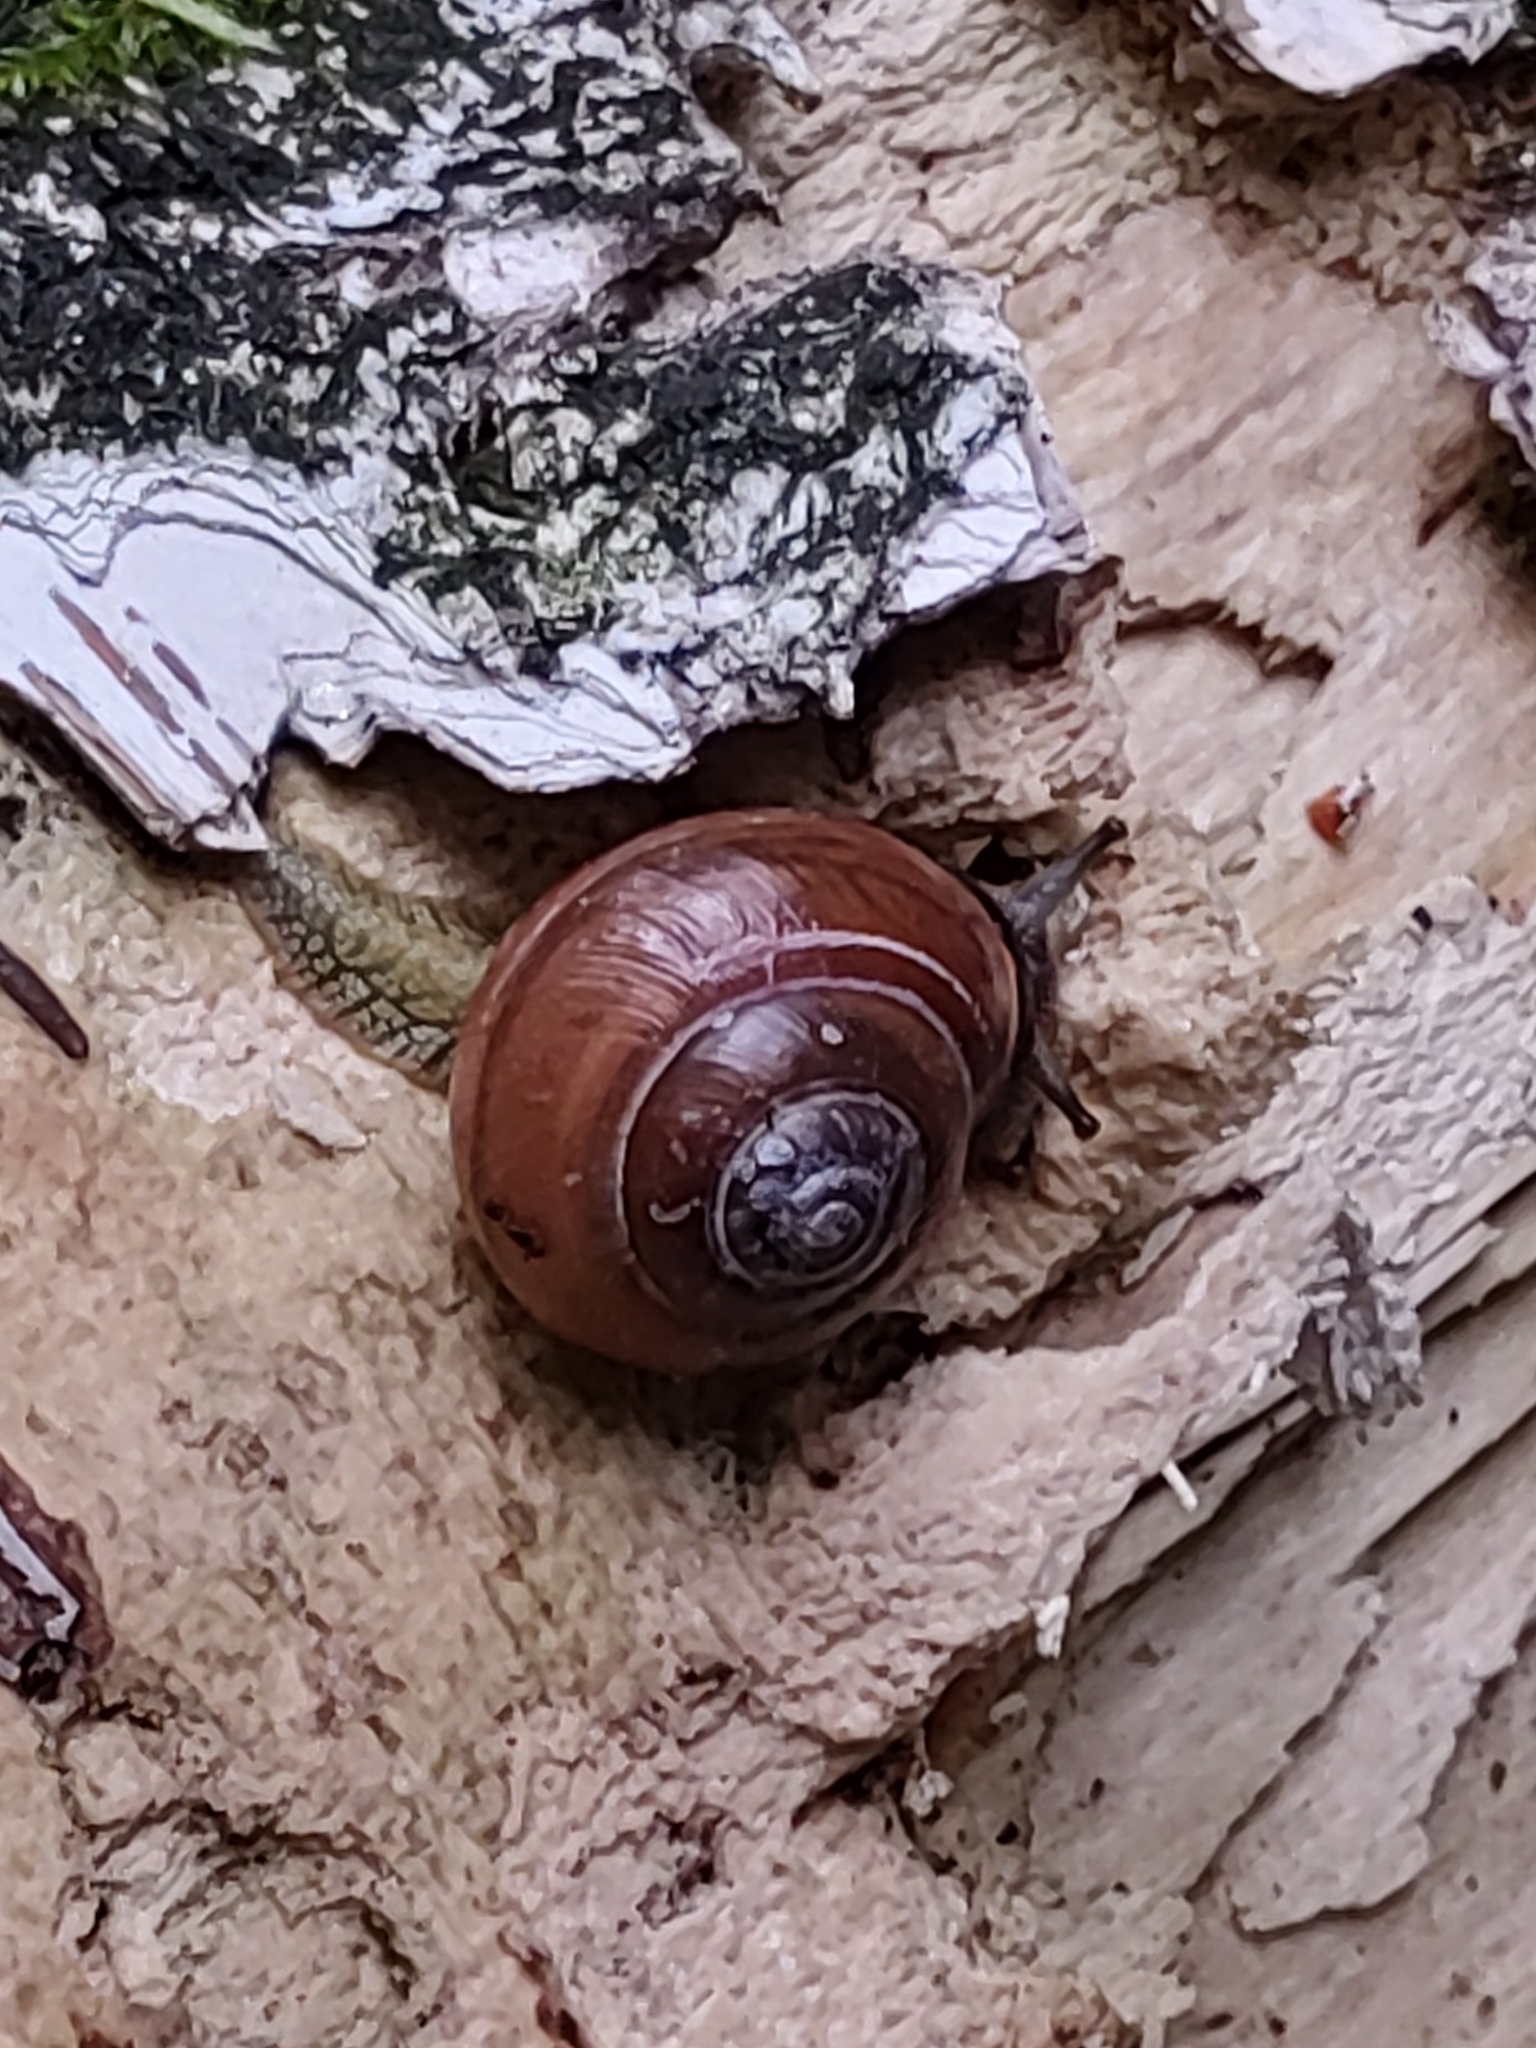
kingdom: Animalia
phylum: Mollusca
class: Gastropoda
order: Stylommatophora
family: Helicidae
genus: Cepaea
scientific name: Cepaea nemoralis
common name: Grovesnail
